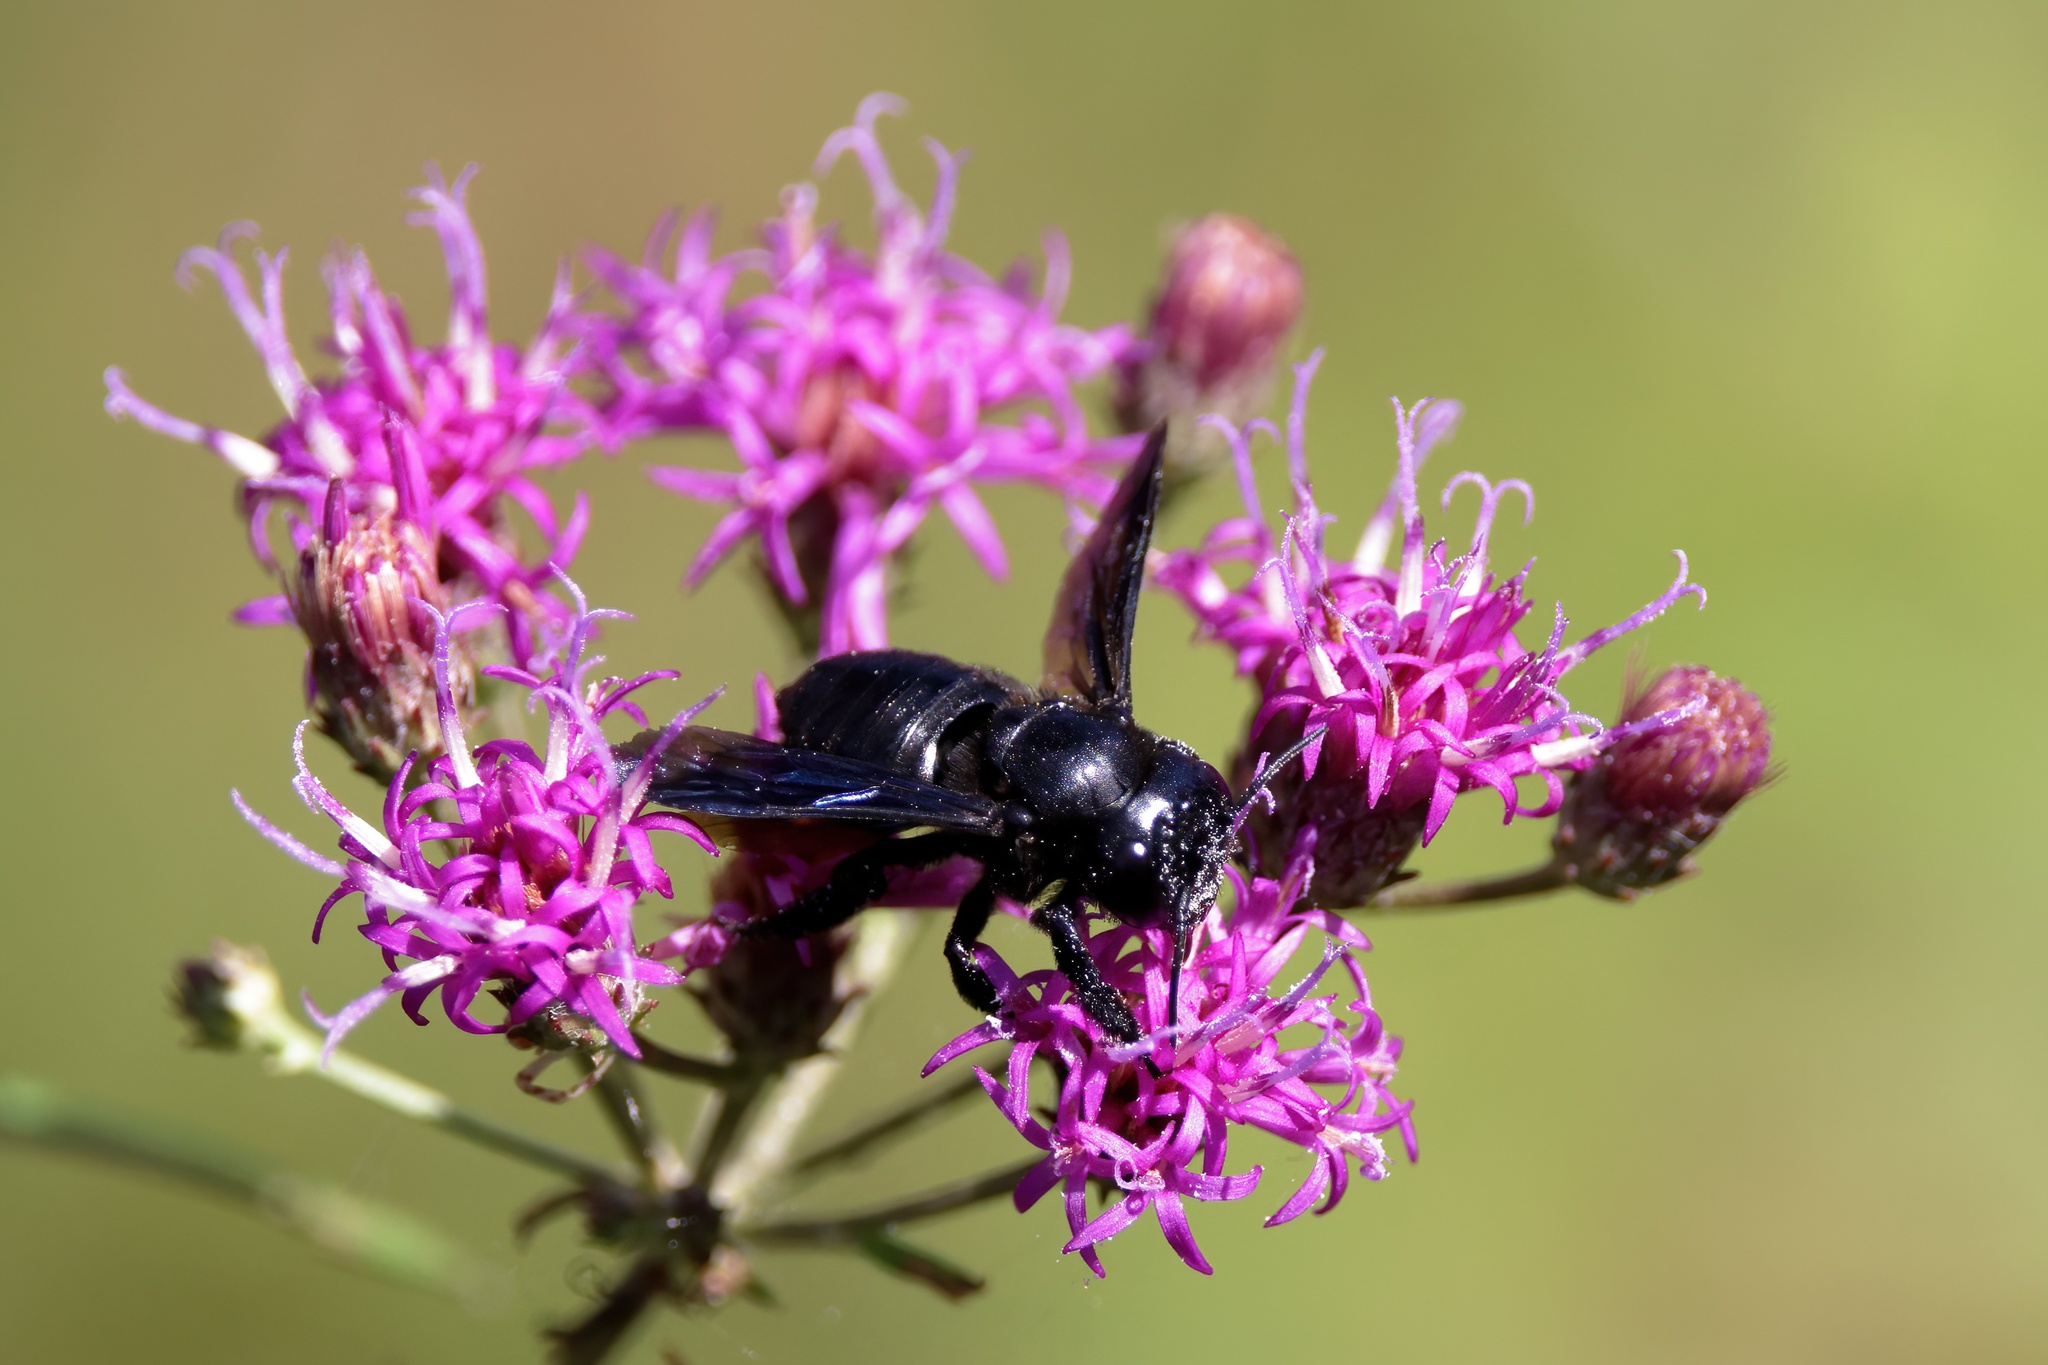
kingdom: Animalia
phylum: Arthropoda
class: Insecta
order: Hymenoptera
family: Megachilidae
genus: Megachile
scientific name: Megachile xylocopoides
